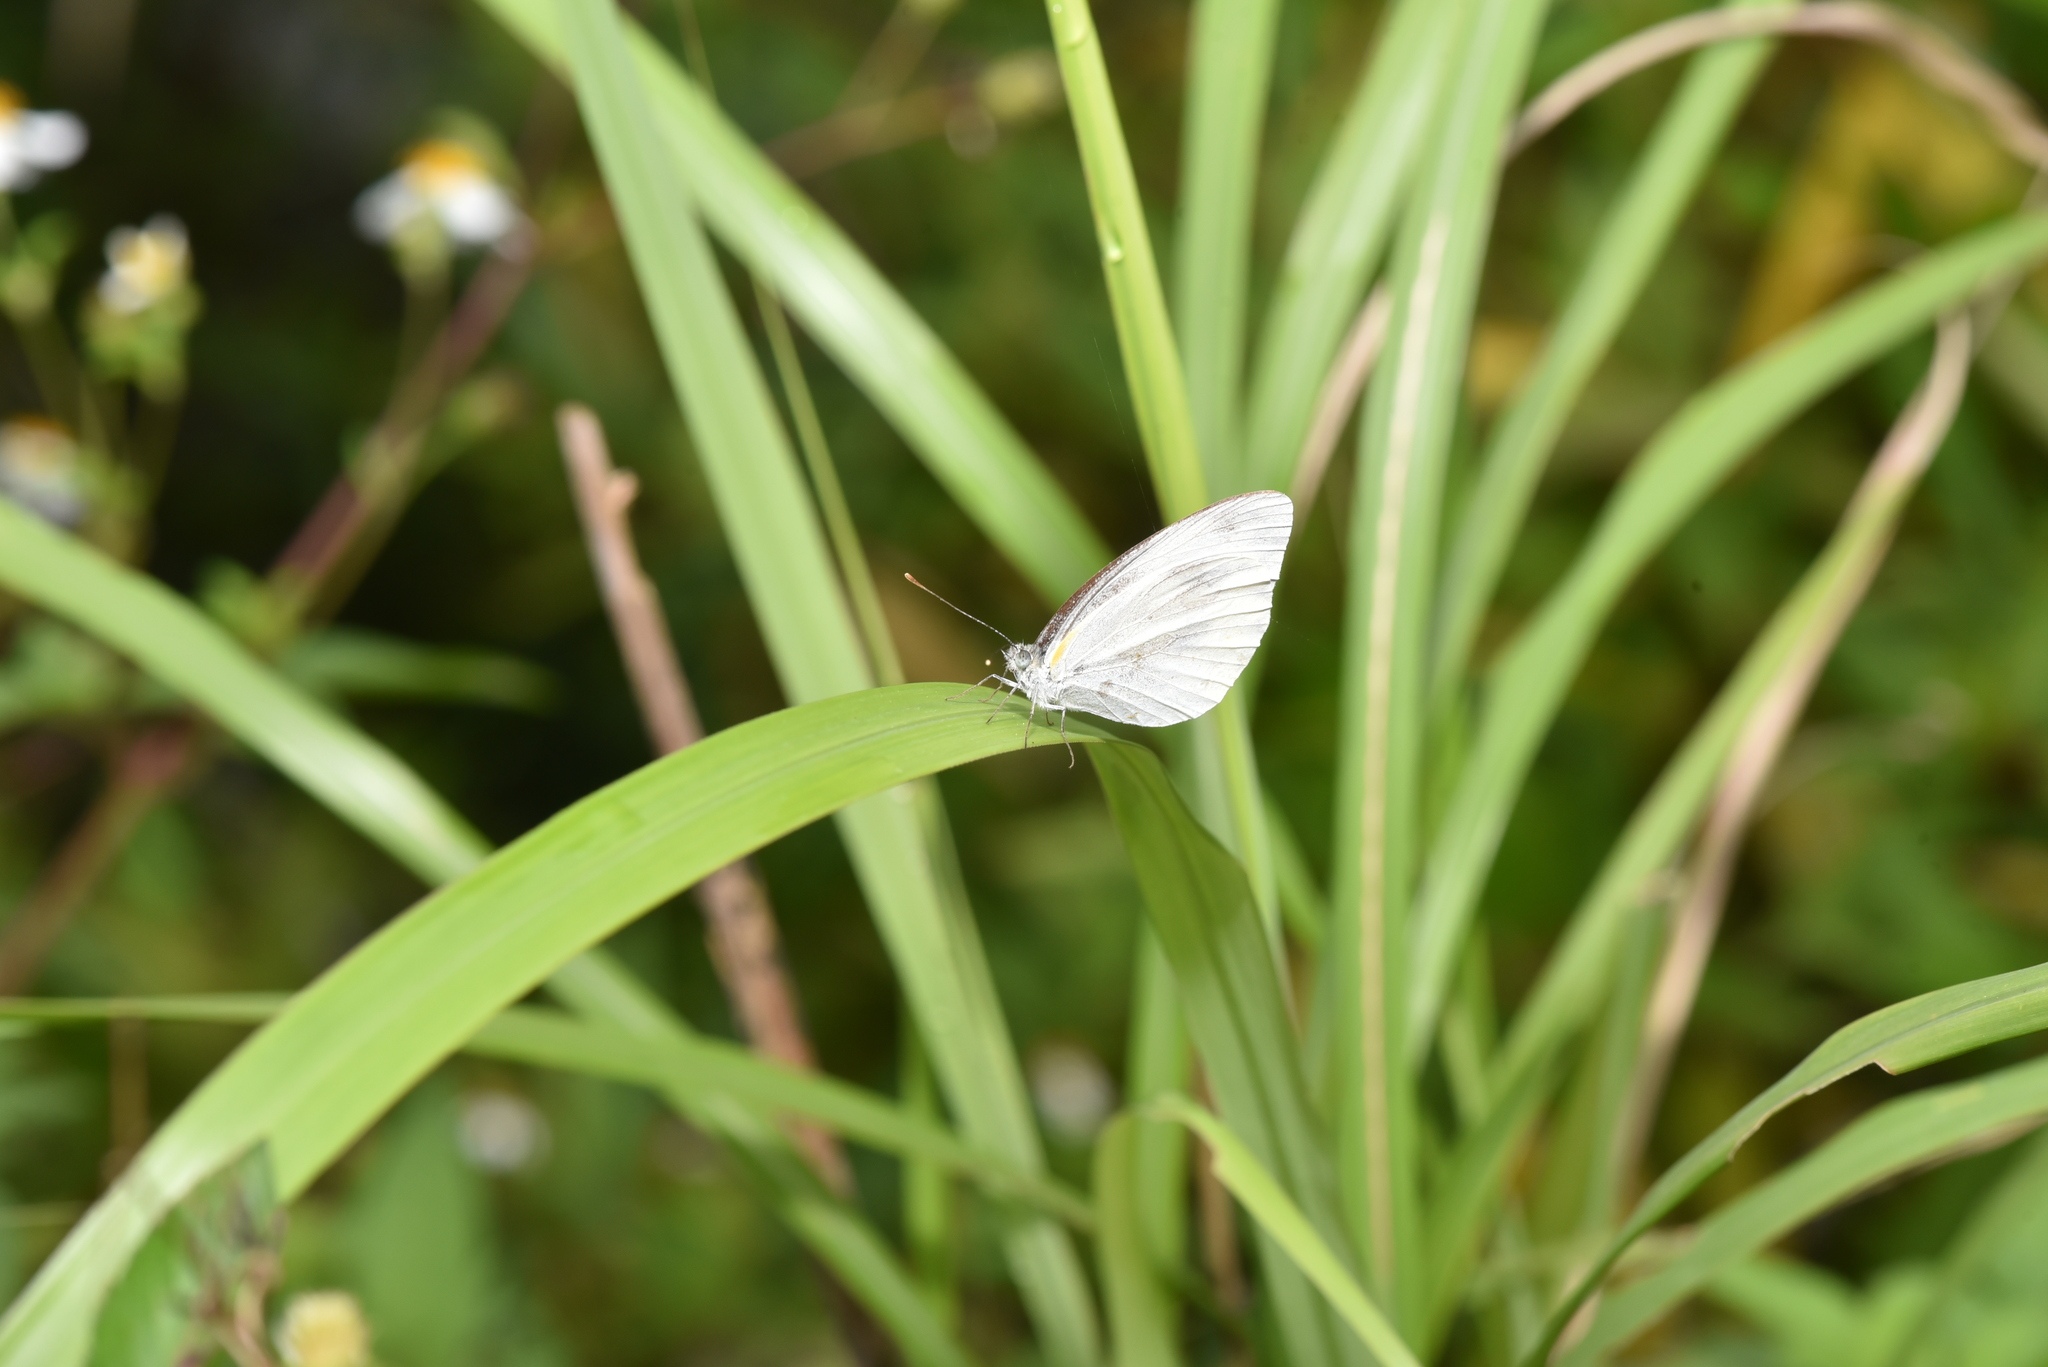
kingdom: Animalia
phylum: Arthropoda
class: Insecta
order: Lepidoptera
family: Pieridae
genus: Pieris
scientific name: Pieris canidia
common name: Indian cabbage white
